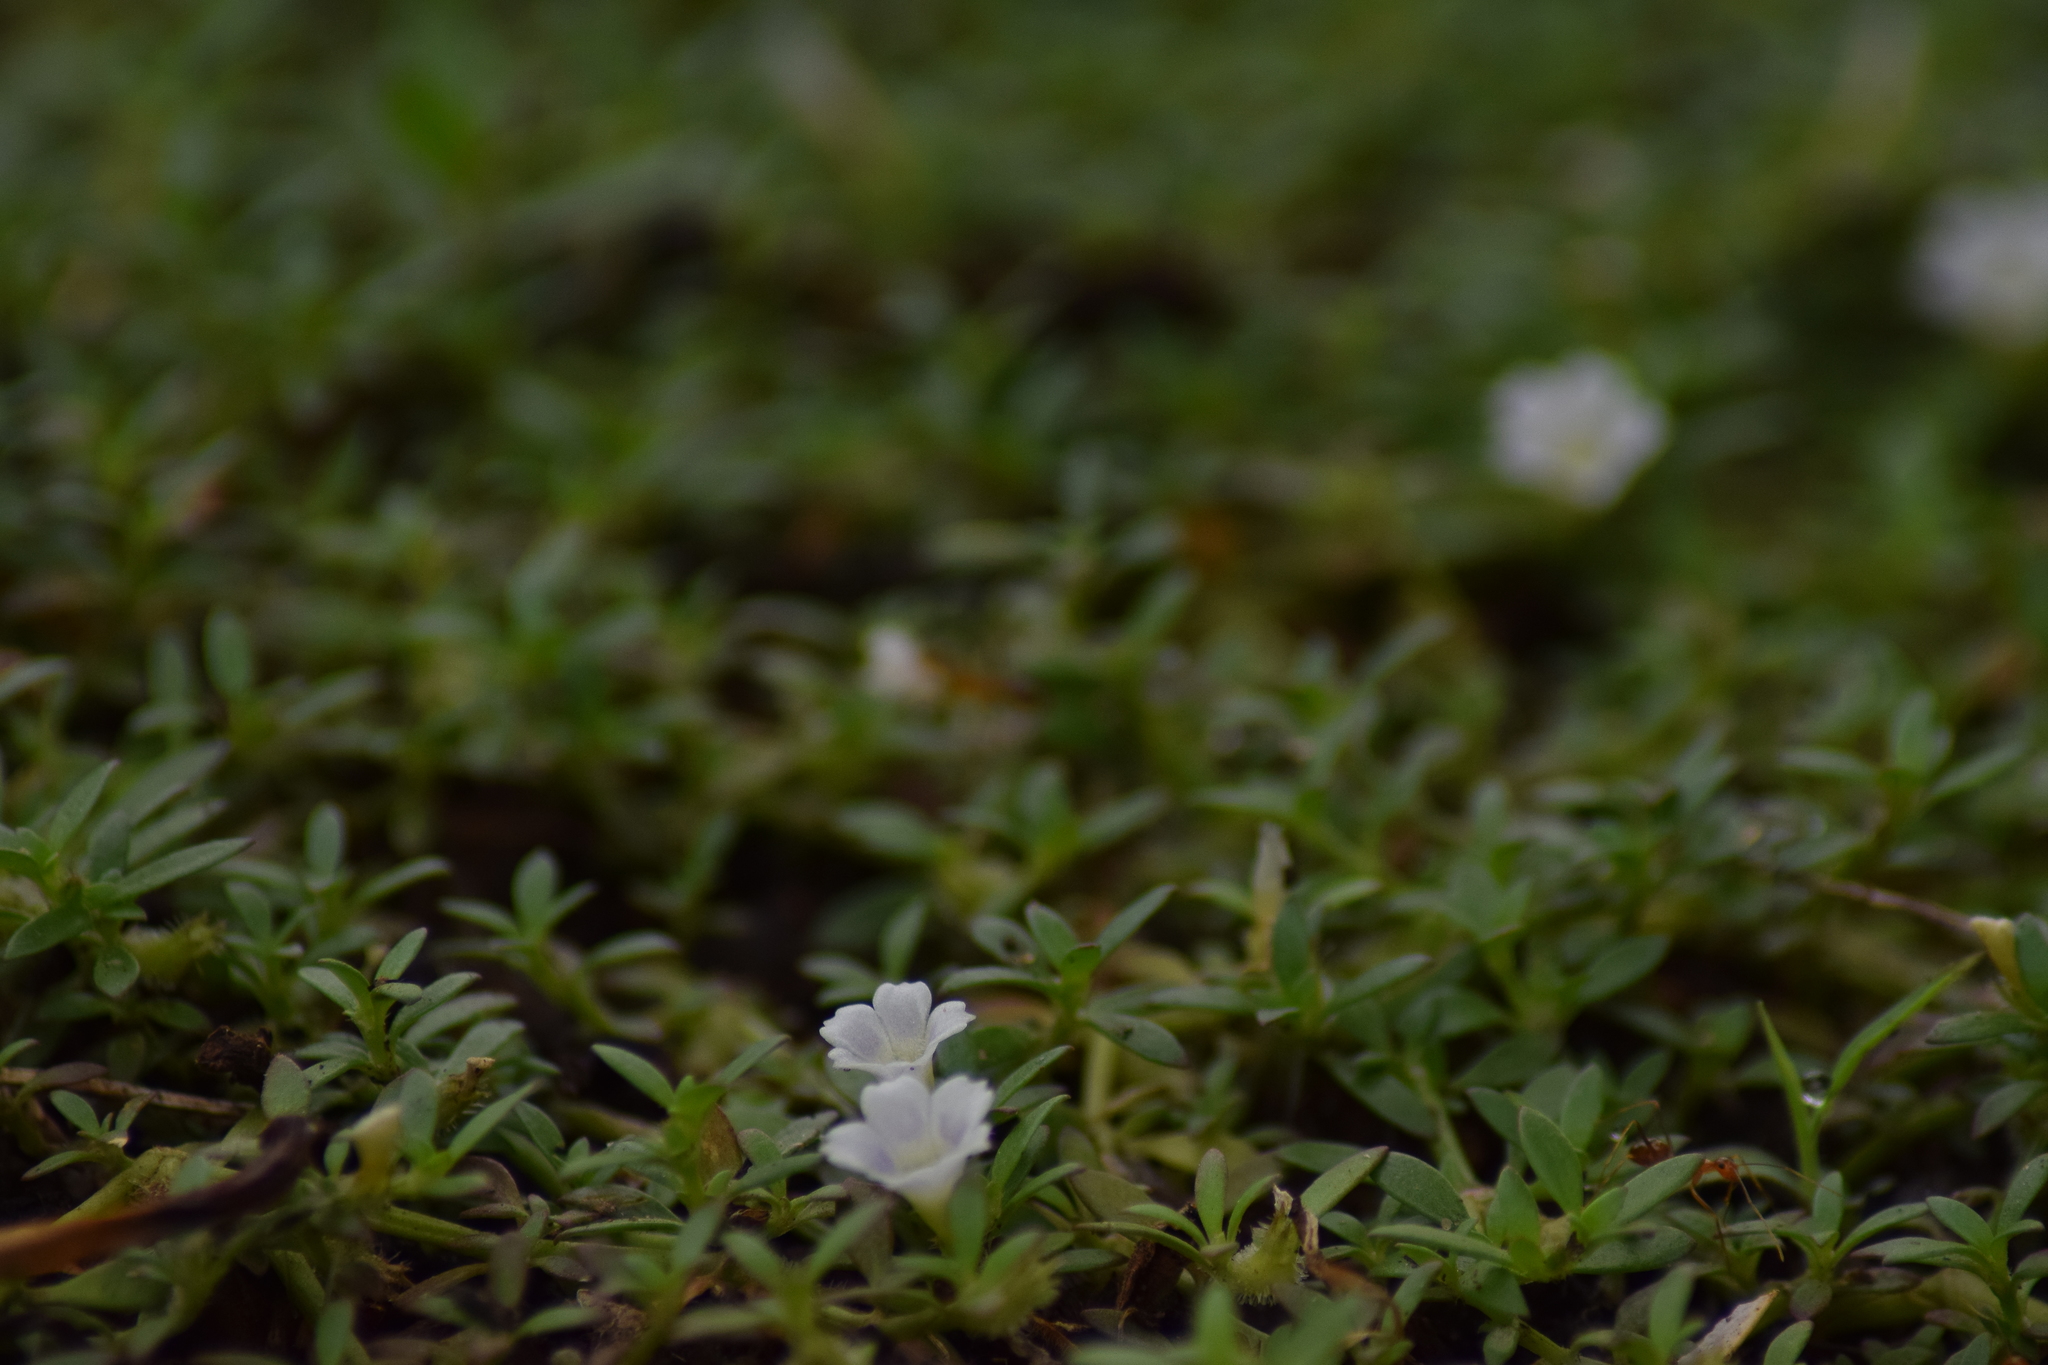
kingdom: Plantae
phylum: Tracheophyta
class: Magnoliopsida
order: Gentianales
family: Rubiaceae
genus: Dentella
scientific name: Dentella repens
